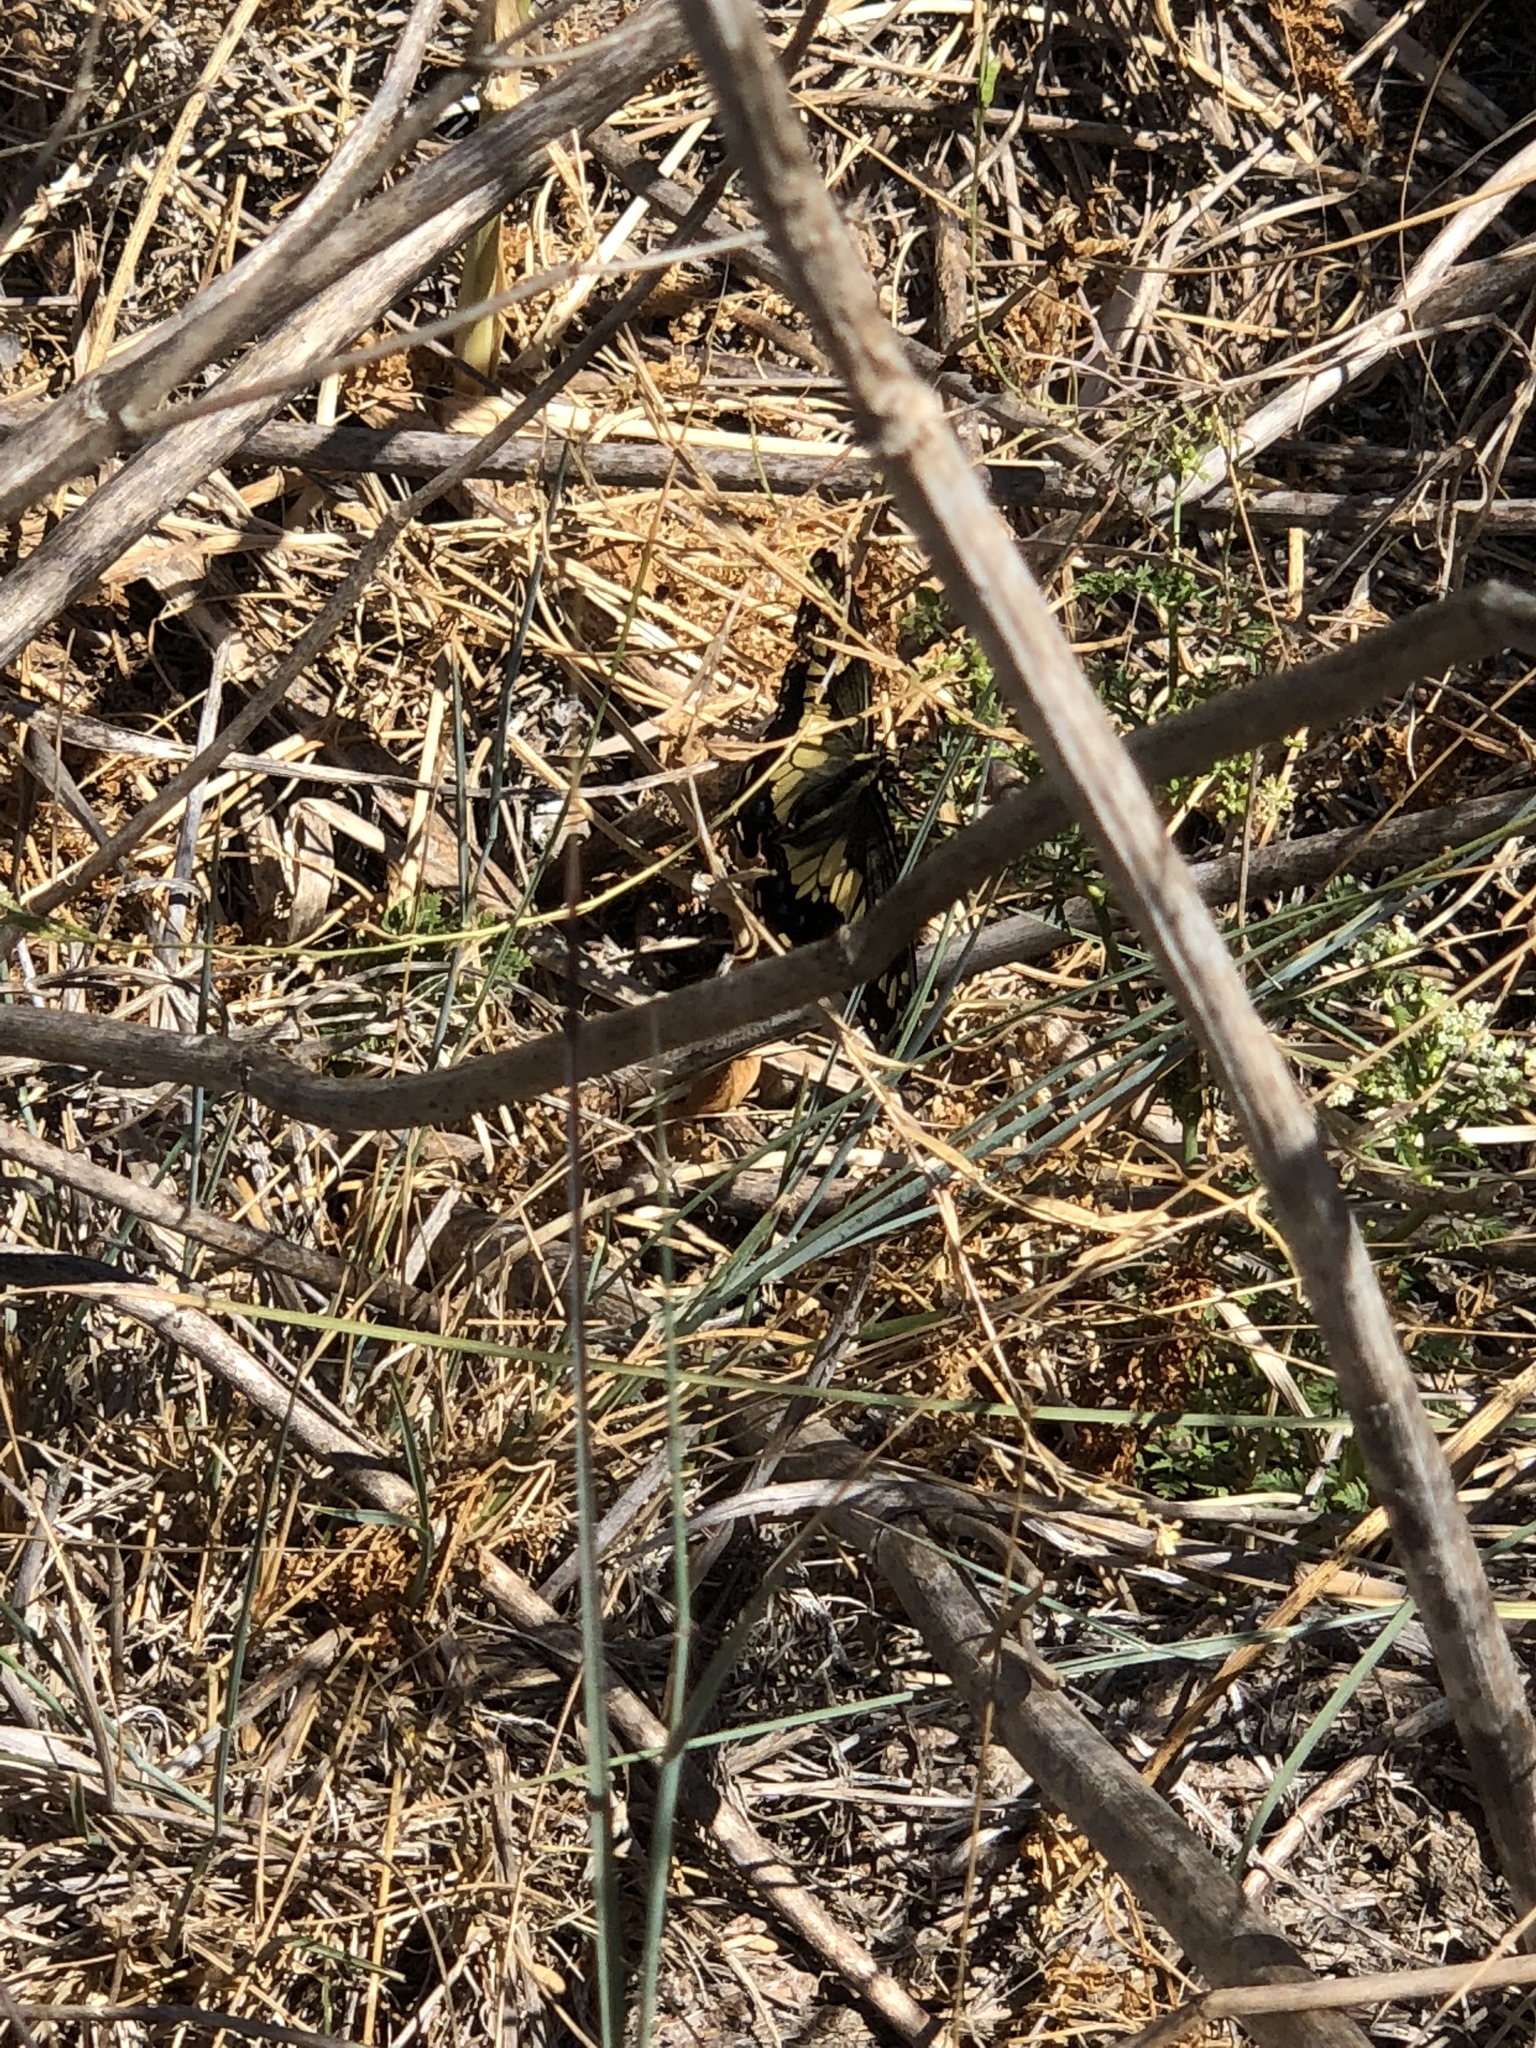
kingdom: Animalia
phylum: Arthropoda
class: Insecta
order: Lepidoptera
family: Papilionidae
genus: Papilio
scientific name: Papilio zelicaon
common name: Anise swallowtail
